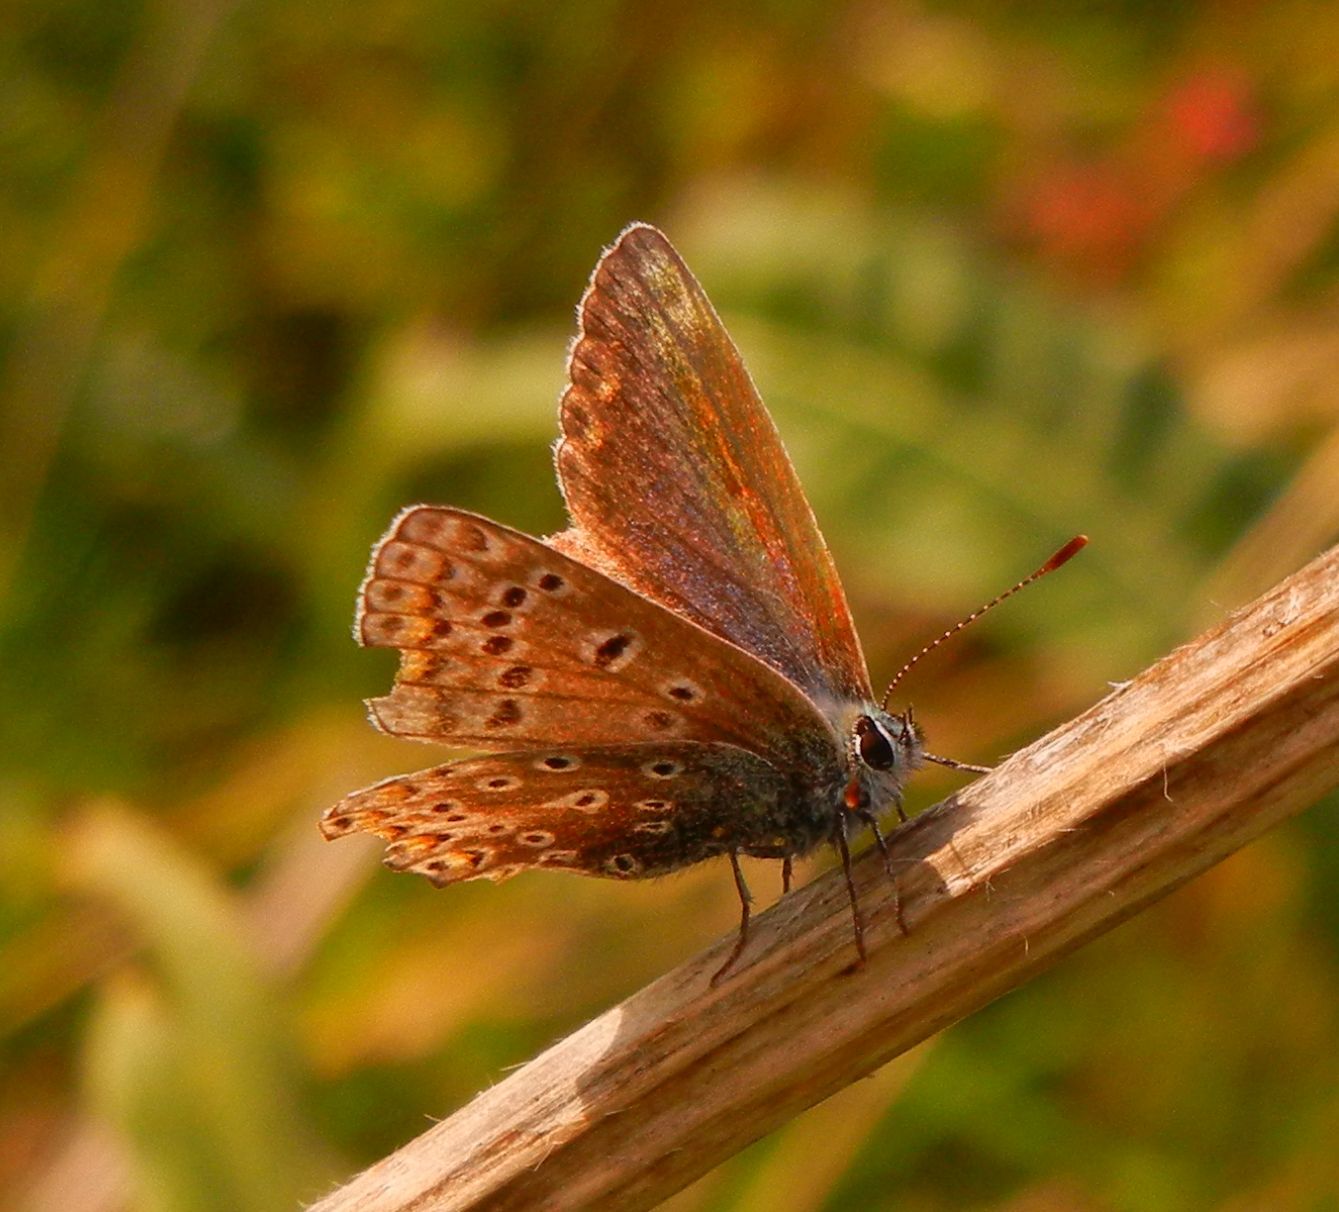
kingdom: Animalia
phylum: Arthropoda
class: Insecta
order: Lepidoptera
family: Lycaenidae
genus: Polyommatus
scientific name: Polyommatus icarus
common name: Common blue
